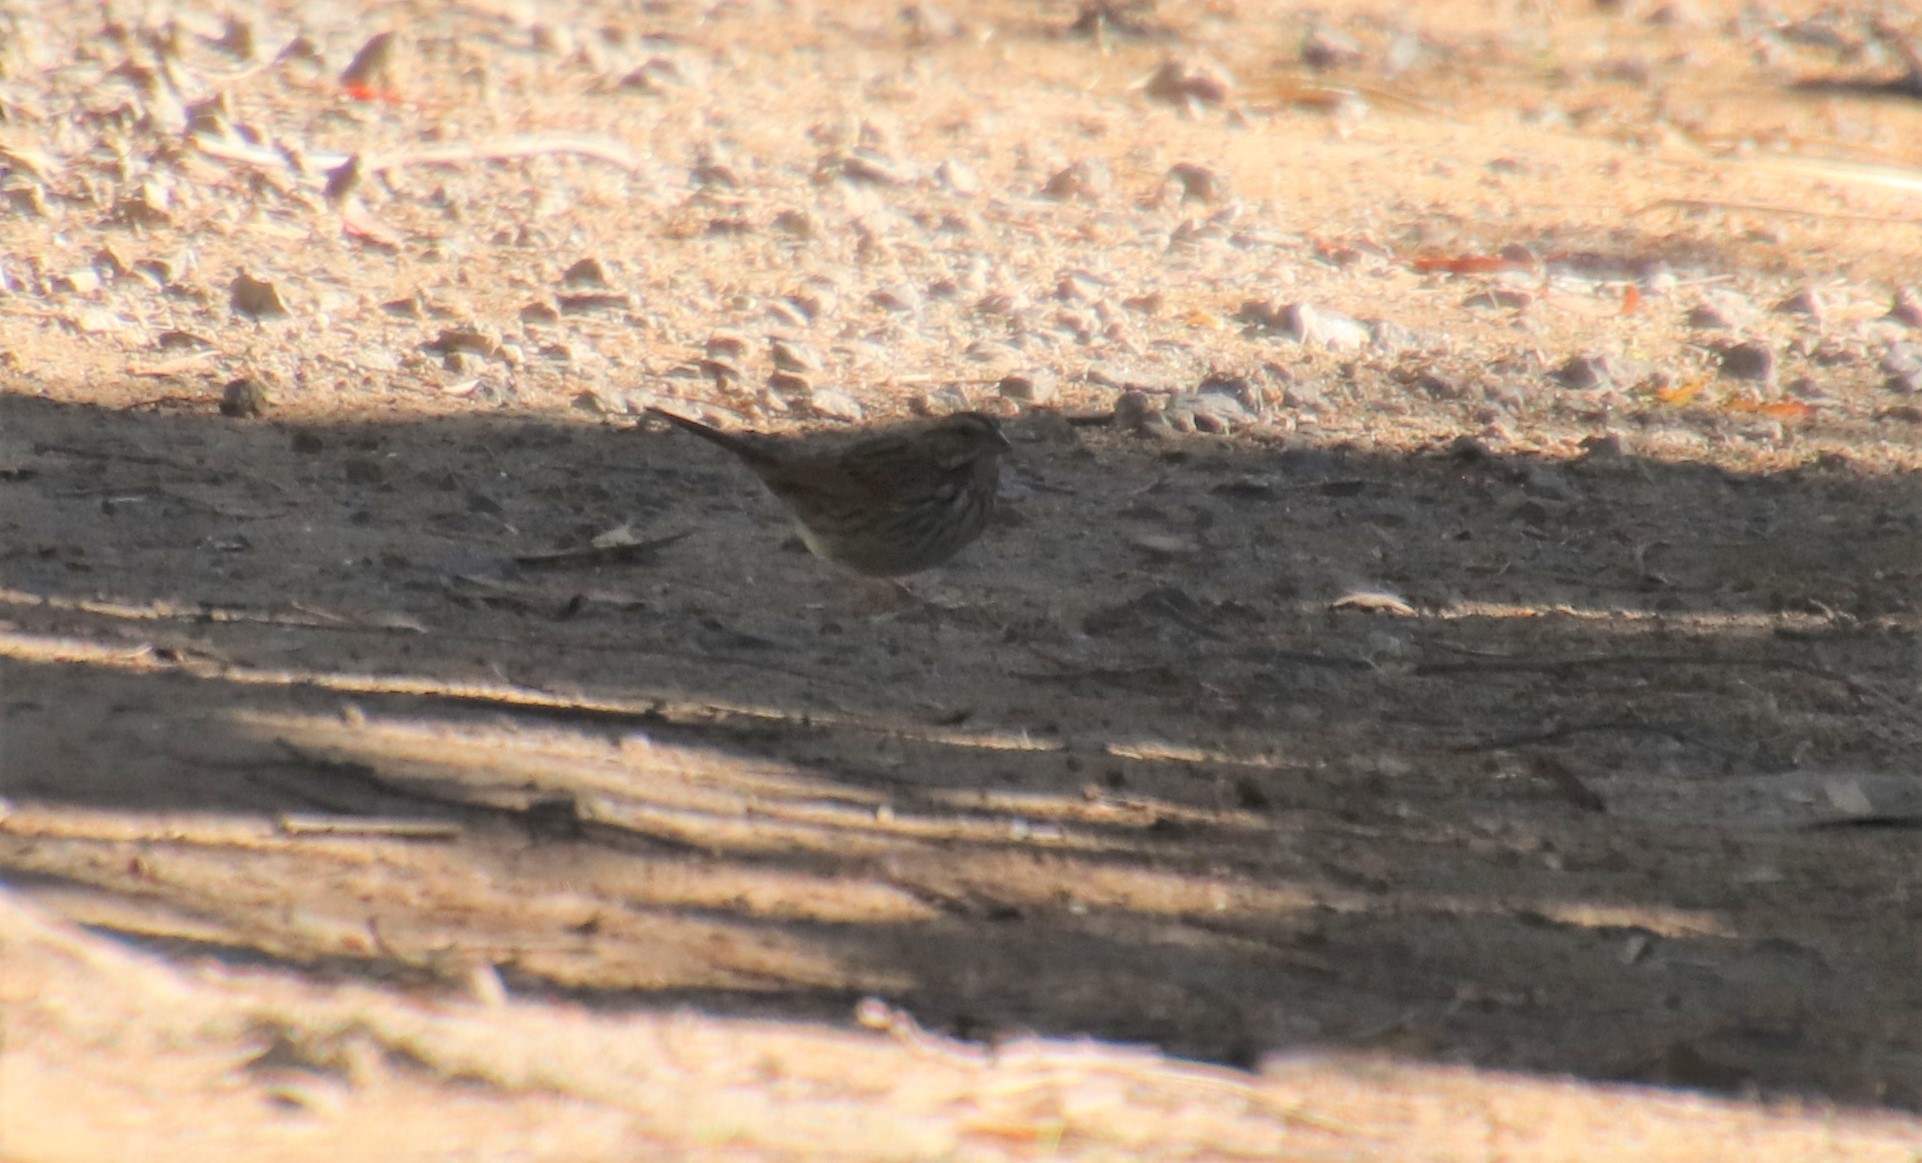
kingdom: Animalia
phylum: Chordata
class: Aves
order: Passeriformes
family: Passerellidae
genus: Melospiza
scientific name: Melospiza melodia
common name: Song sparrow
